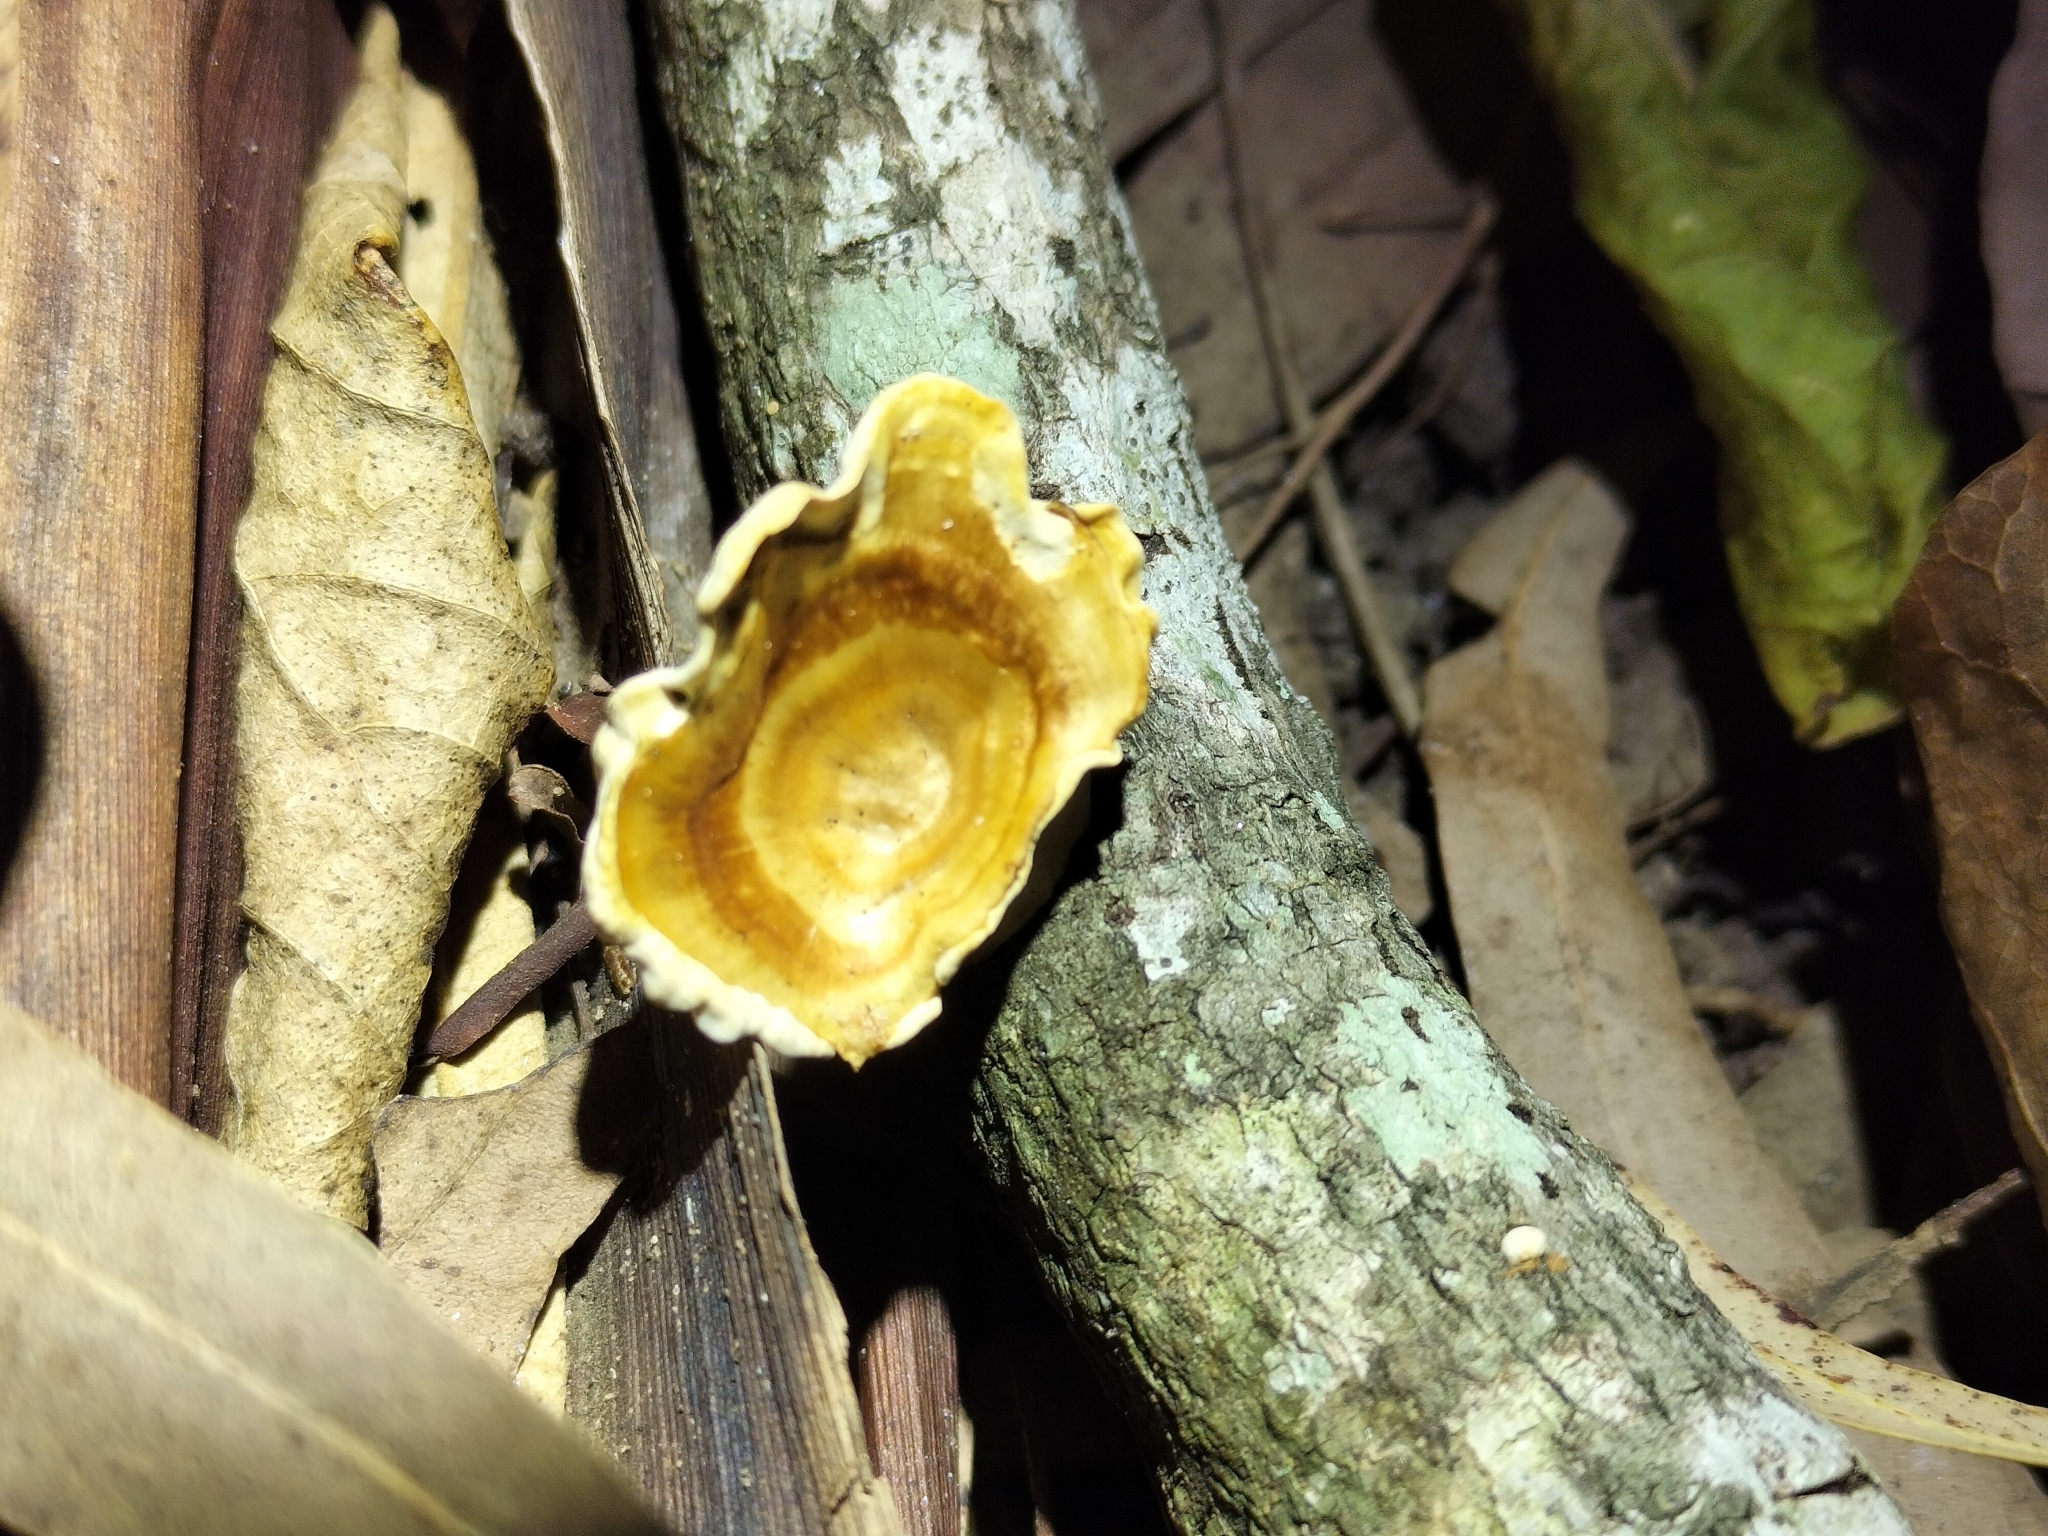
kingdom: Fungi
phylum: Basidiomycota
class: Agaricomycetes
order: Polyporales
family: Polyporaceae
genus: Microporus
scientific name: Microporus xanthopus
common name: Yellow-stemmed micropore
